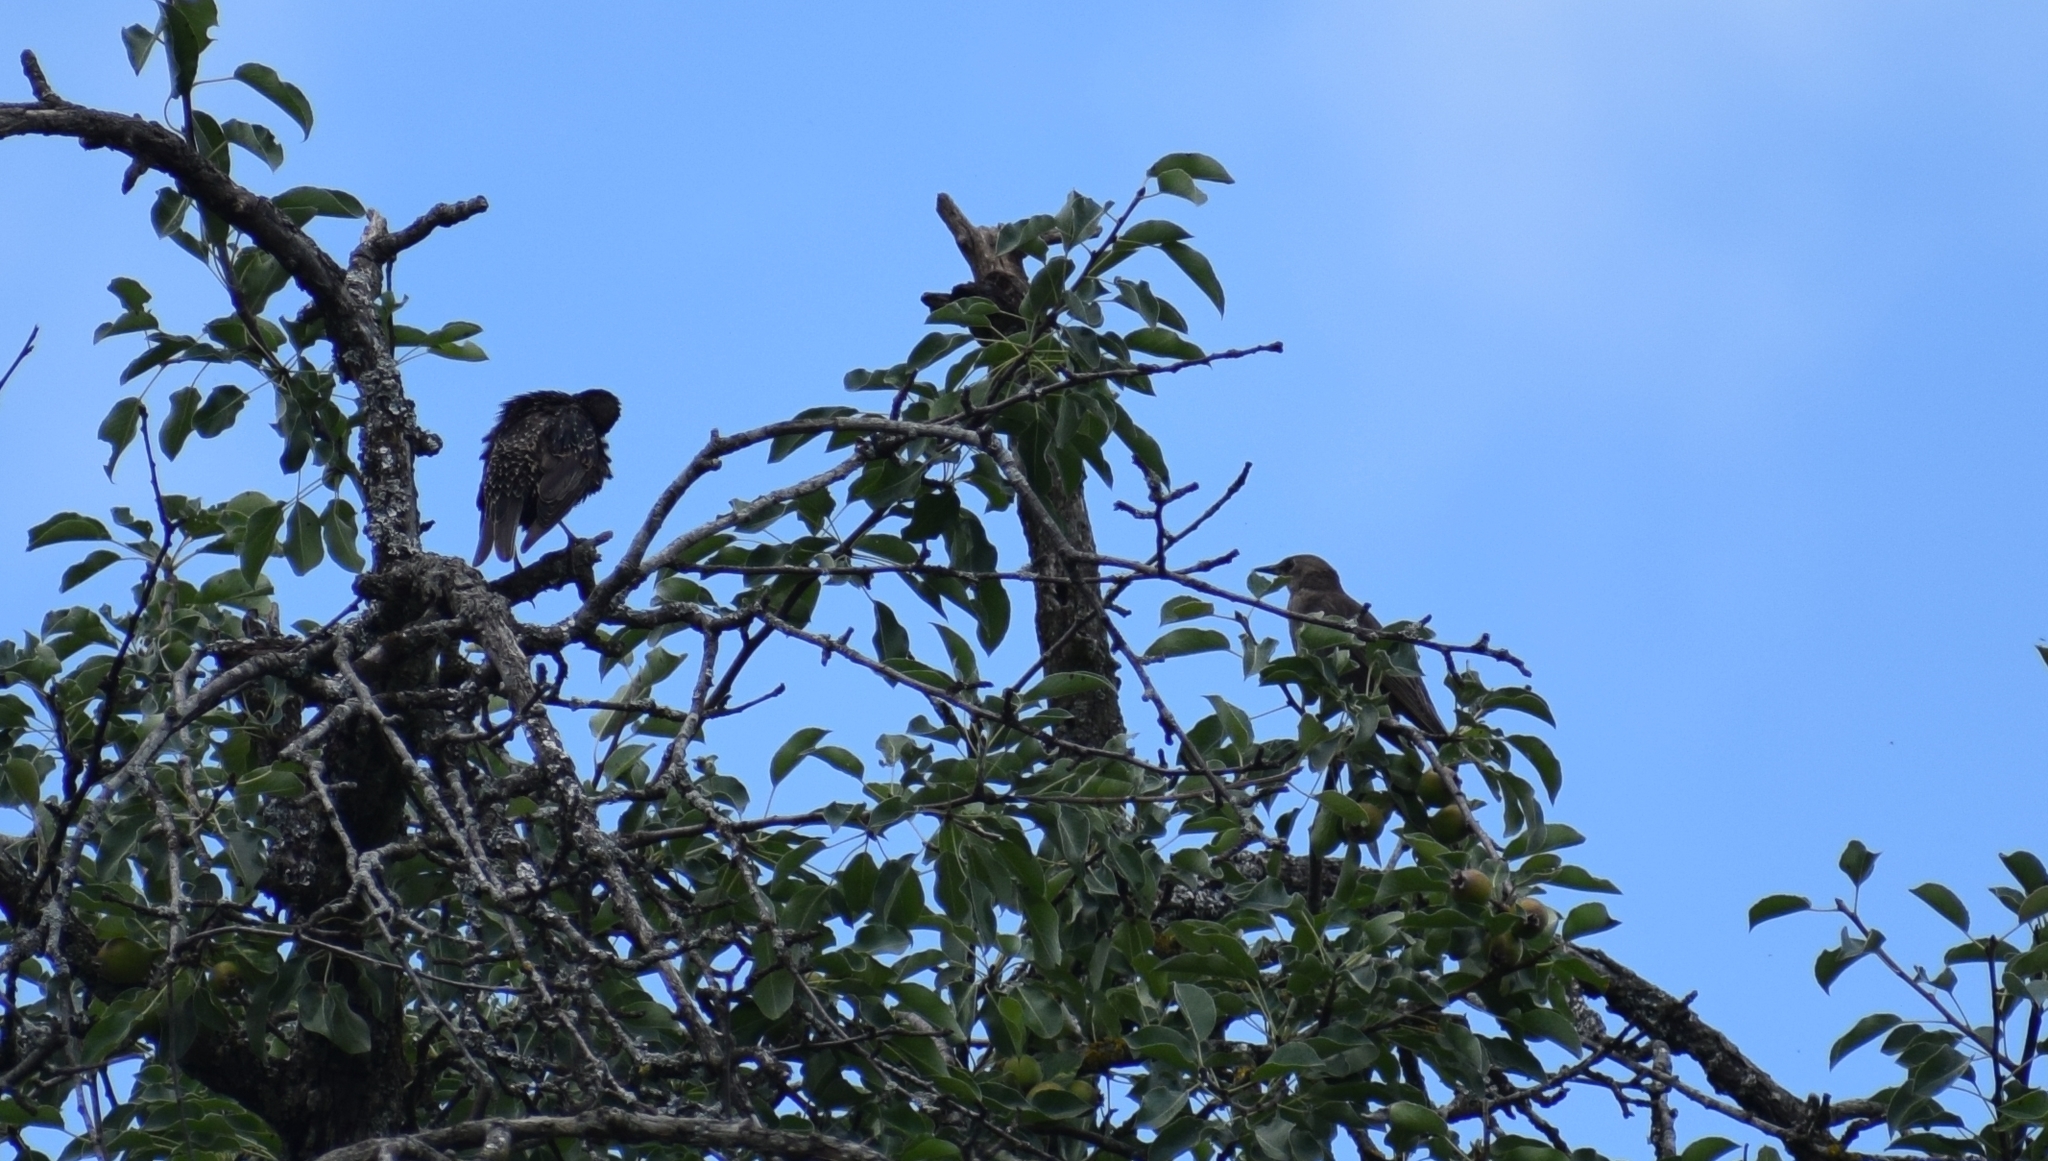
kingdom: Animalia
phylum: Chordata
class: Aves
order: Passeriformes
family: Sturnidae
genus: Sturnus
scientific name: Sturnus vulgaris
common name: Common starling
